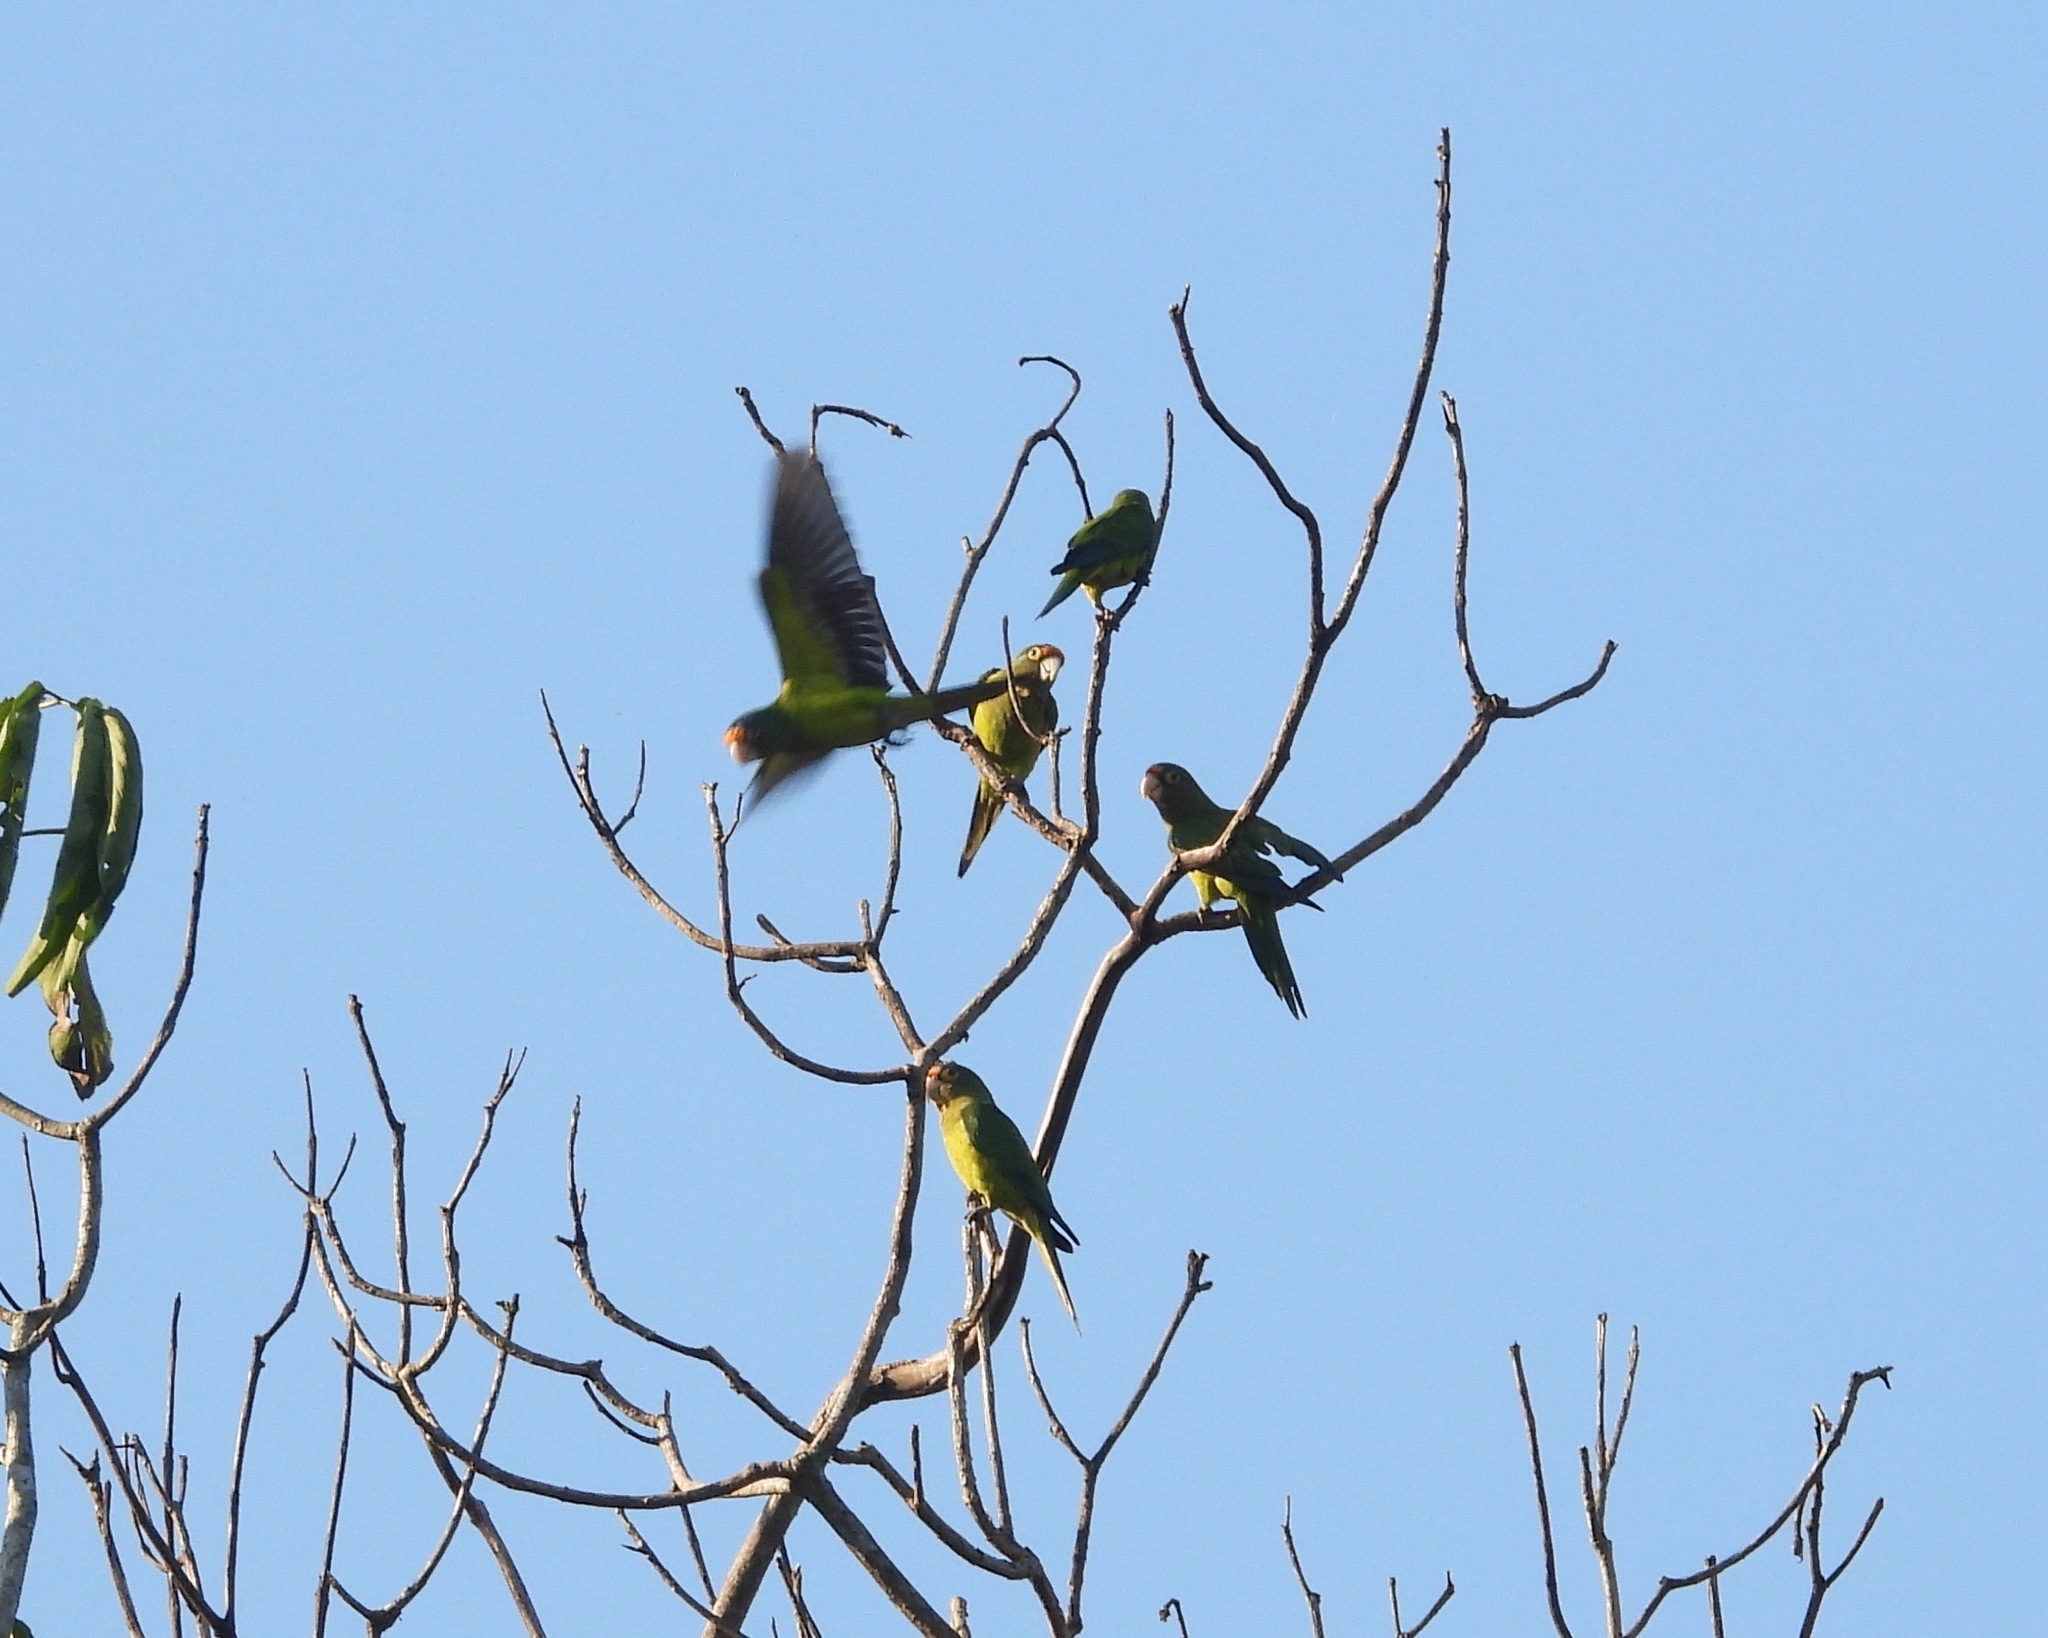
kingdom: Animalia
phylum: Chordata
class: Aves
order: Psittaciformes
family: Psittacidae
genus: Aratinga
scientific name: Aratinga canicularis
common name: Orange-fronted parakeet
